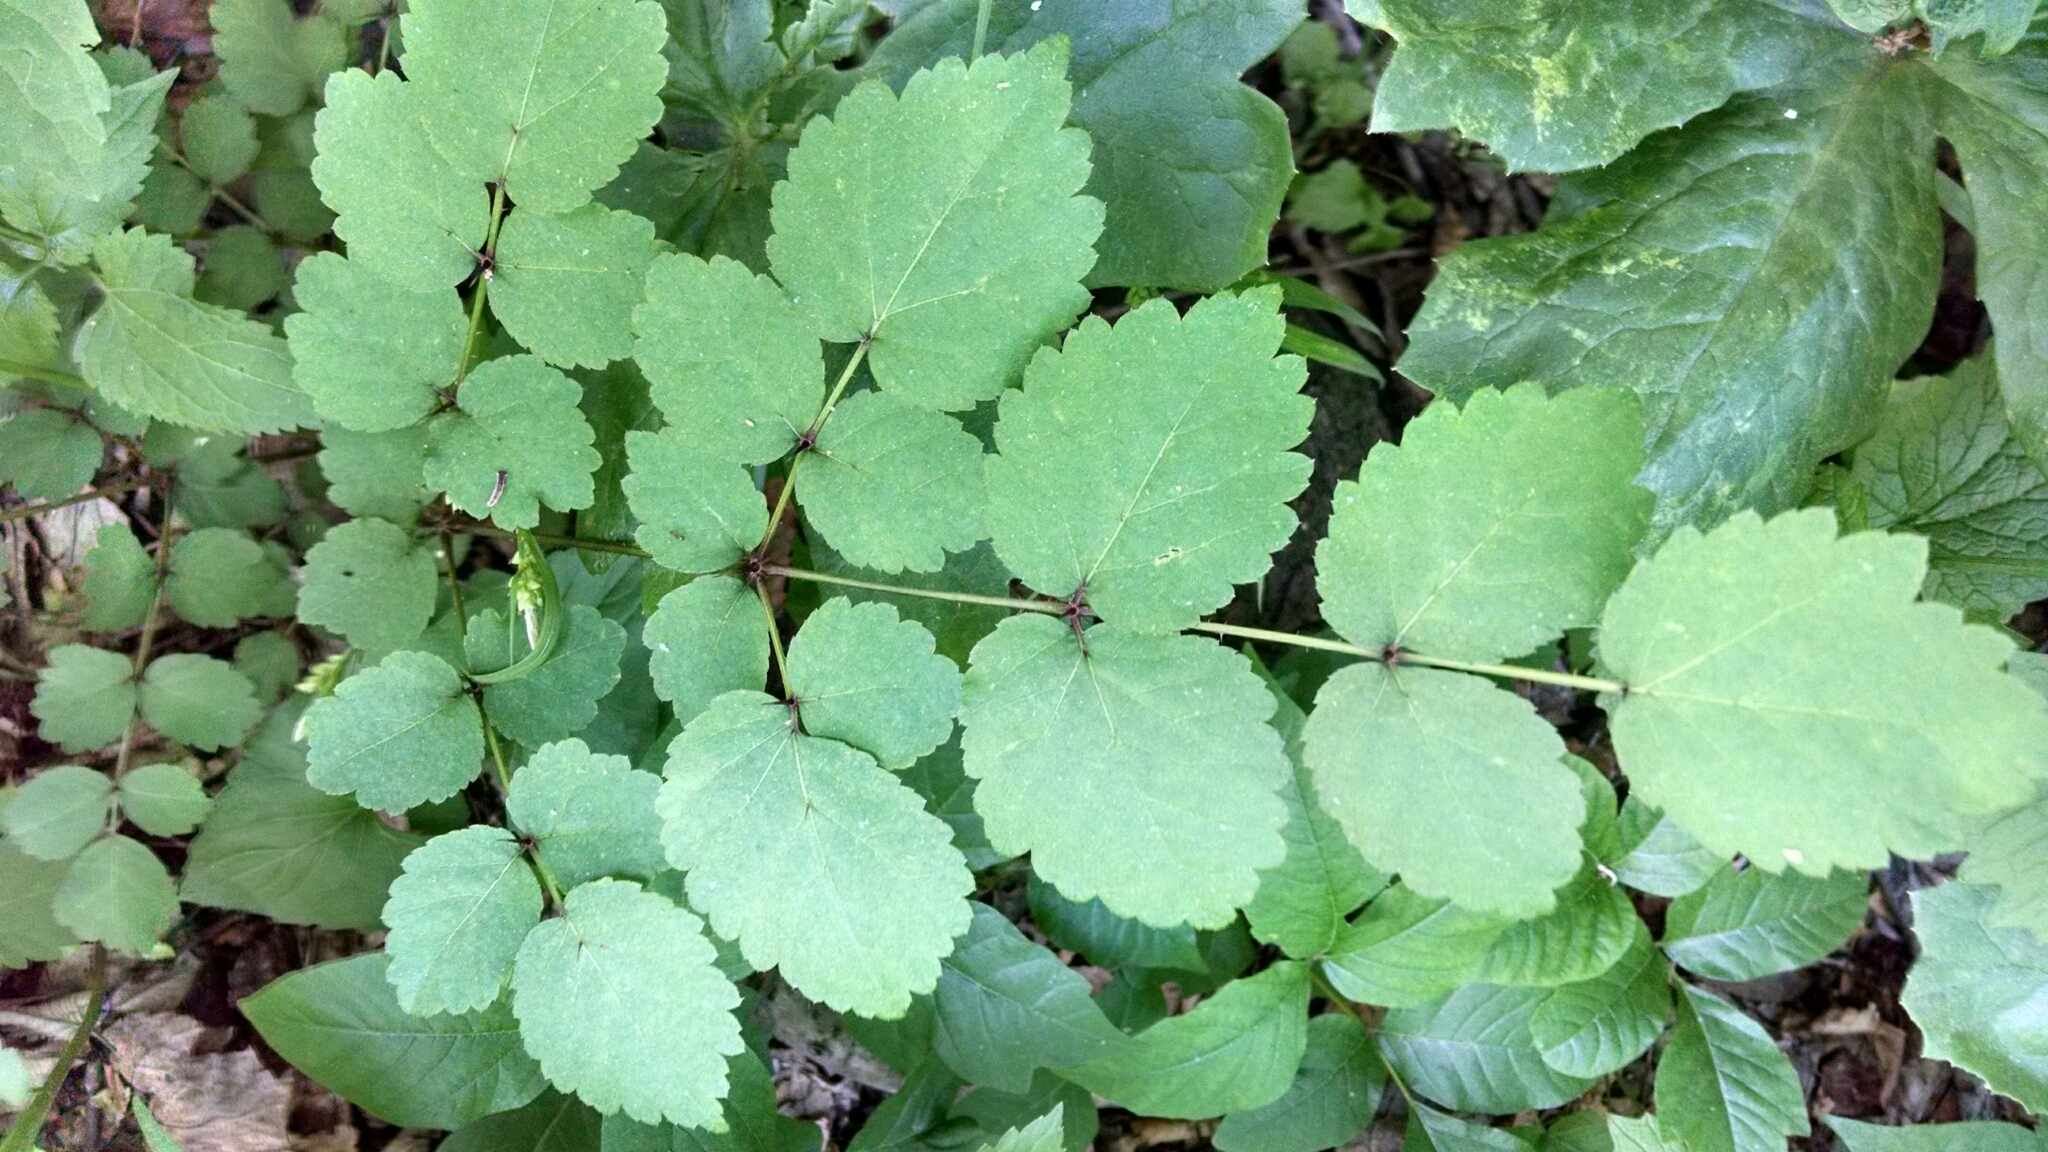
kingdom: Plantae
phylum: Tracheophyta
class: Magnoliopsida
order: Apiales
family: Araliaceae
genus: Aralia
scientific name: Aralia elata
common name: Japanese angelica-tree
